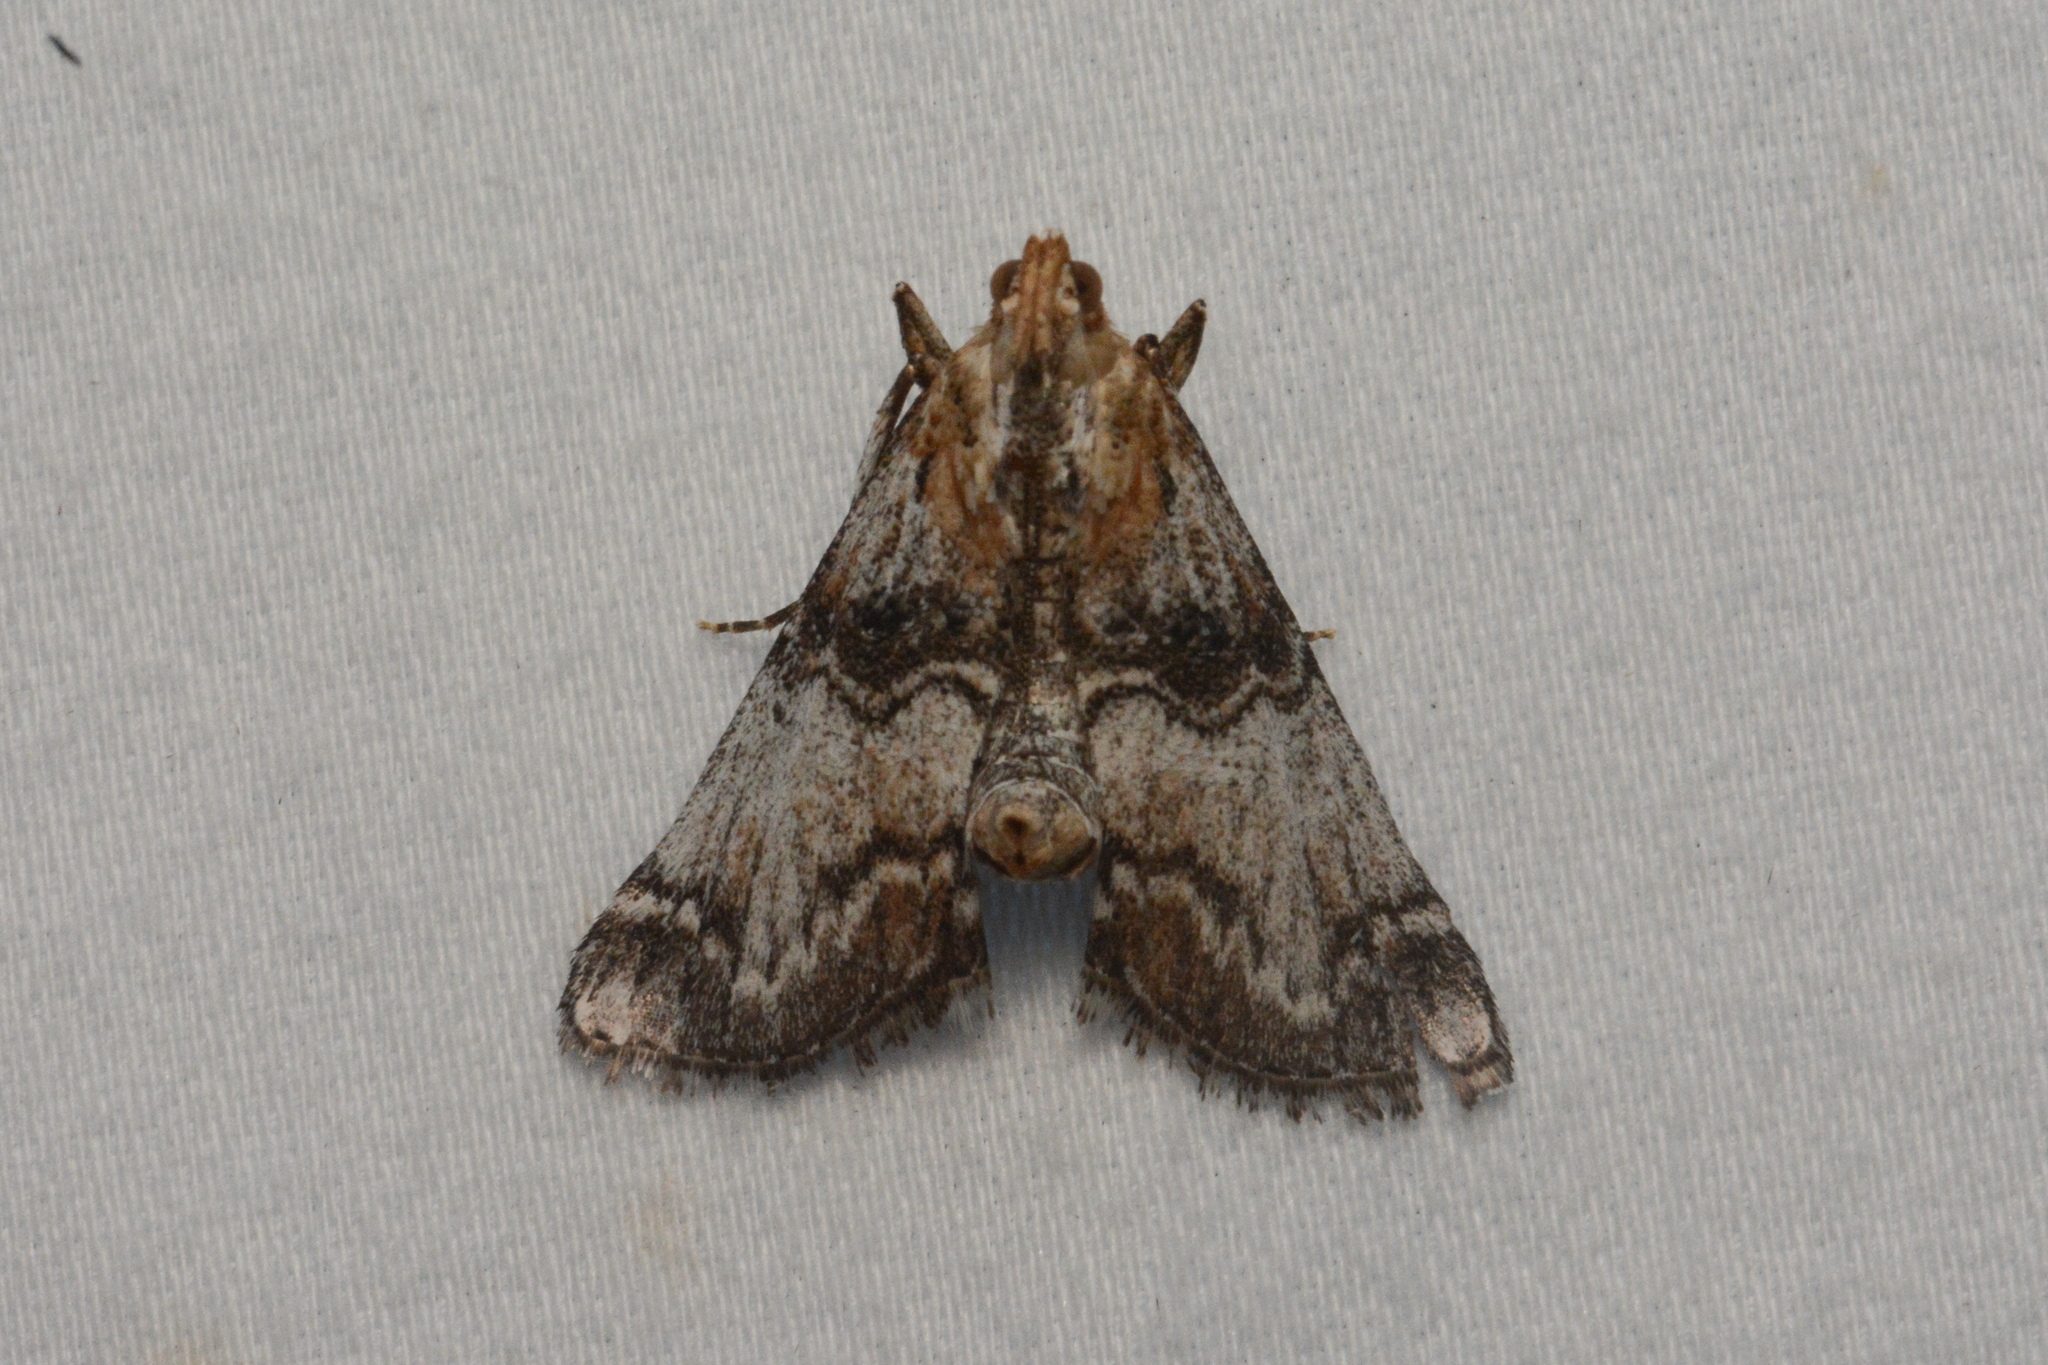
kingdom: Animalia
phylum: Arthropoda
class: Insecta
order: Lepidoptera
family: Pyralidae
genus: Toripalpus
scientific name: Toripalpus trabalis
